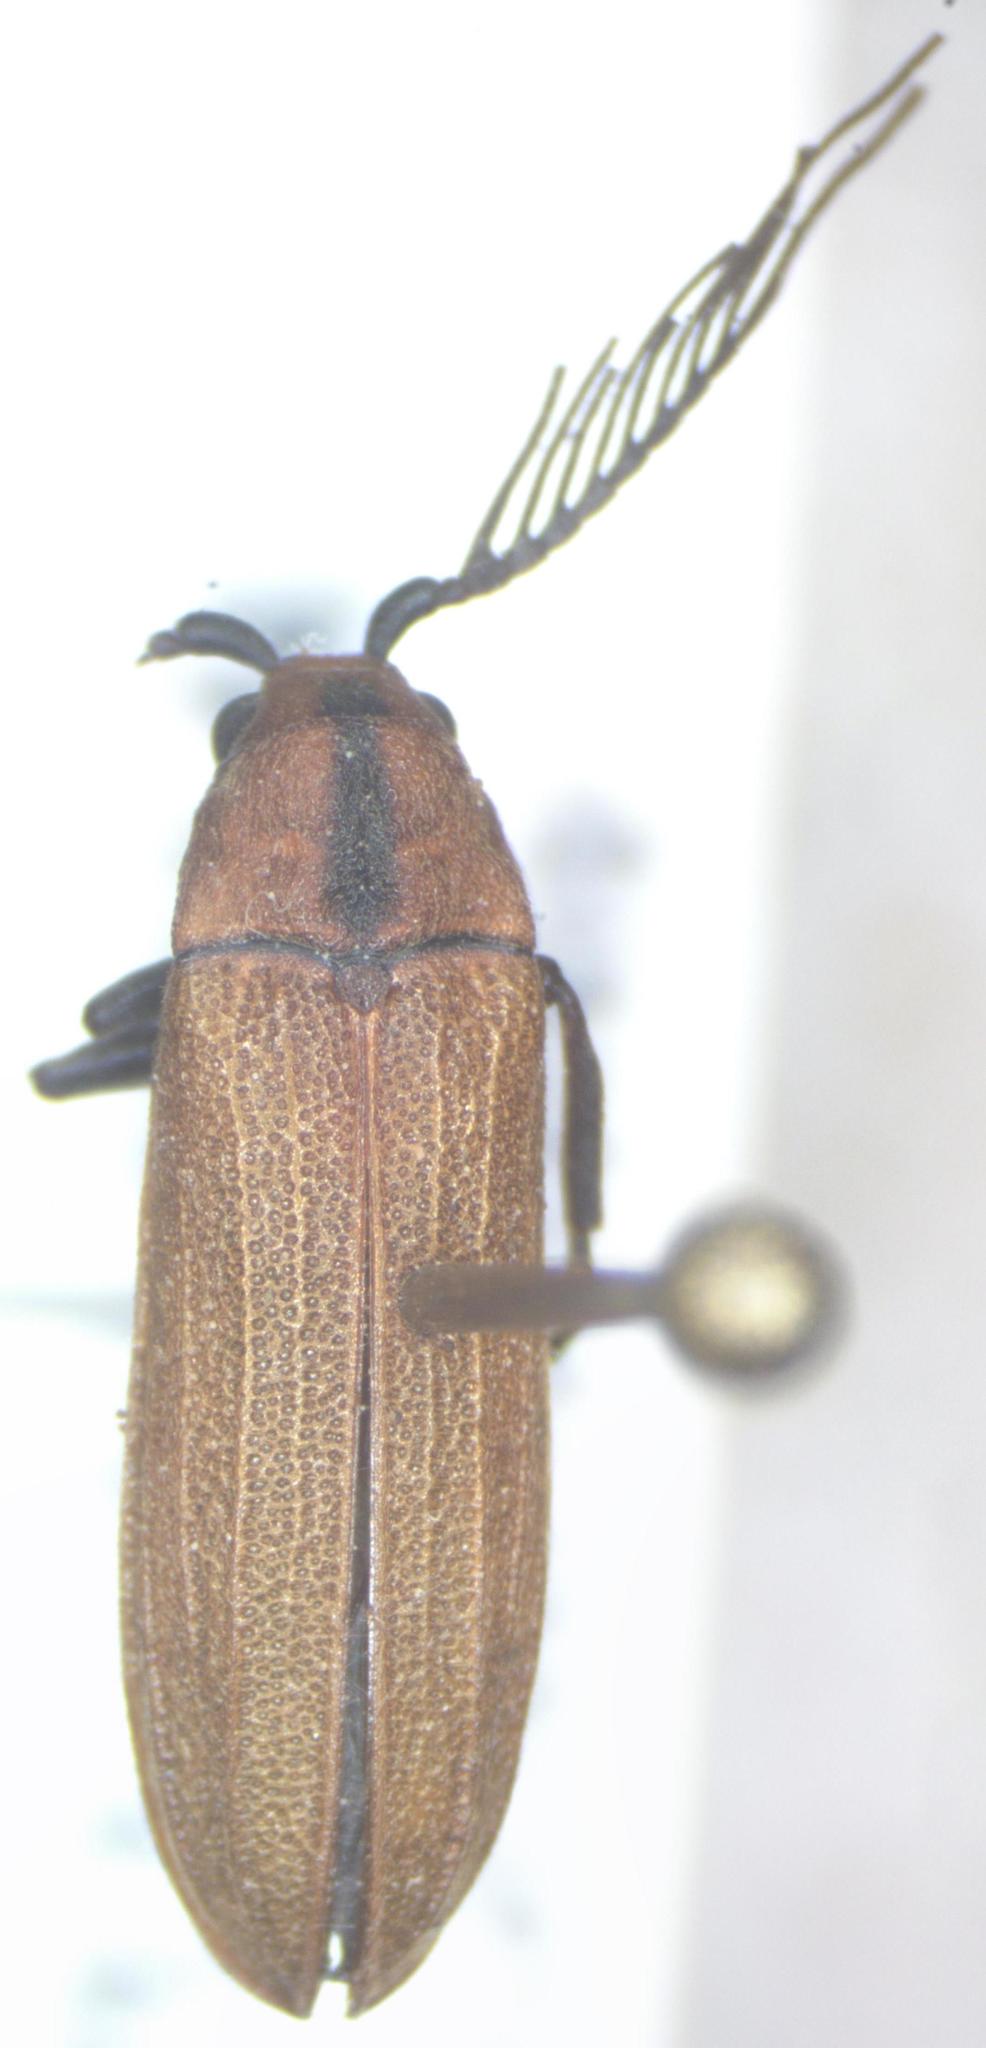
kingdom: Animalia
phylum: Arthropoda
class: Insecta
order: Coleoptera
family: Callirhipidae
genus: Celadonia
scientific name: Celadonia
